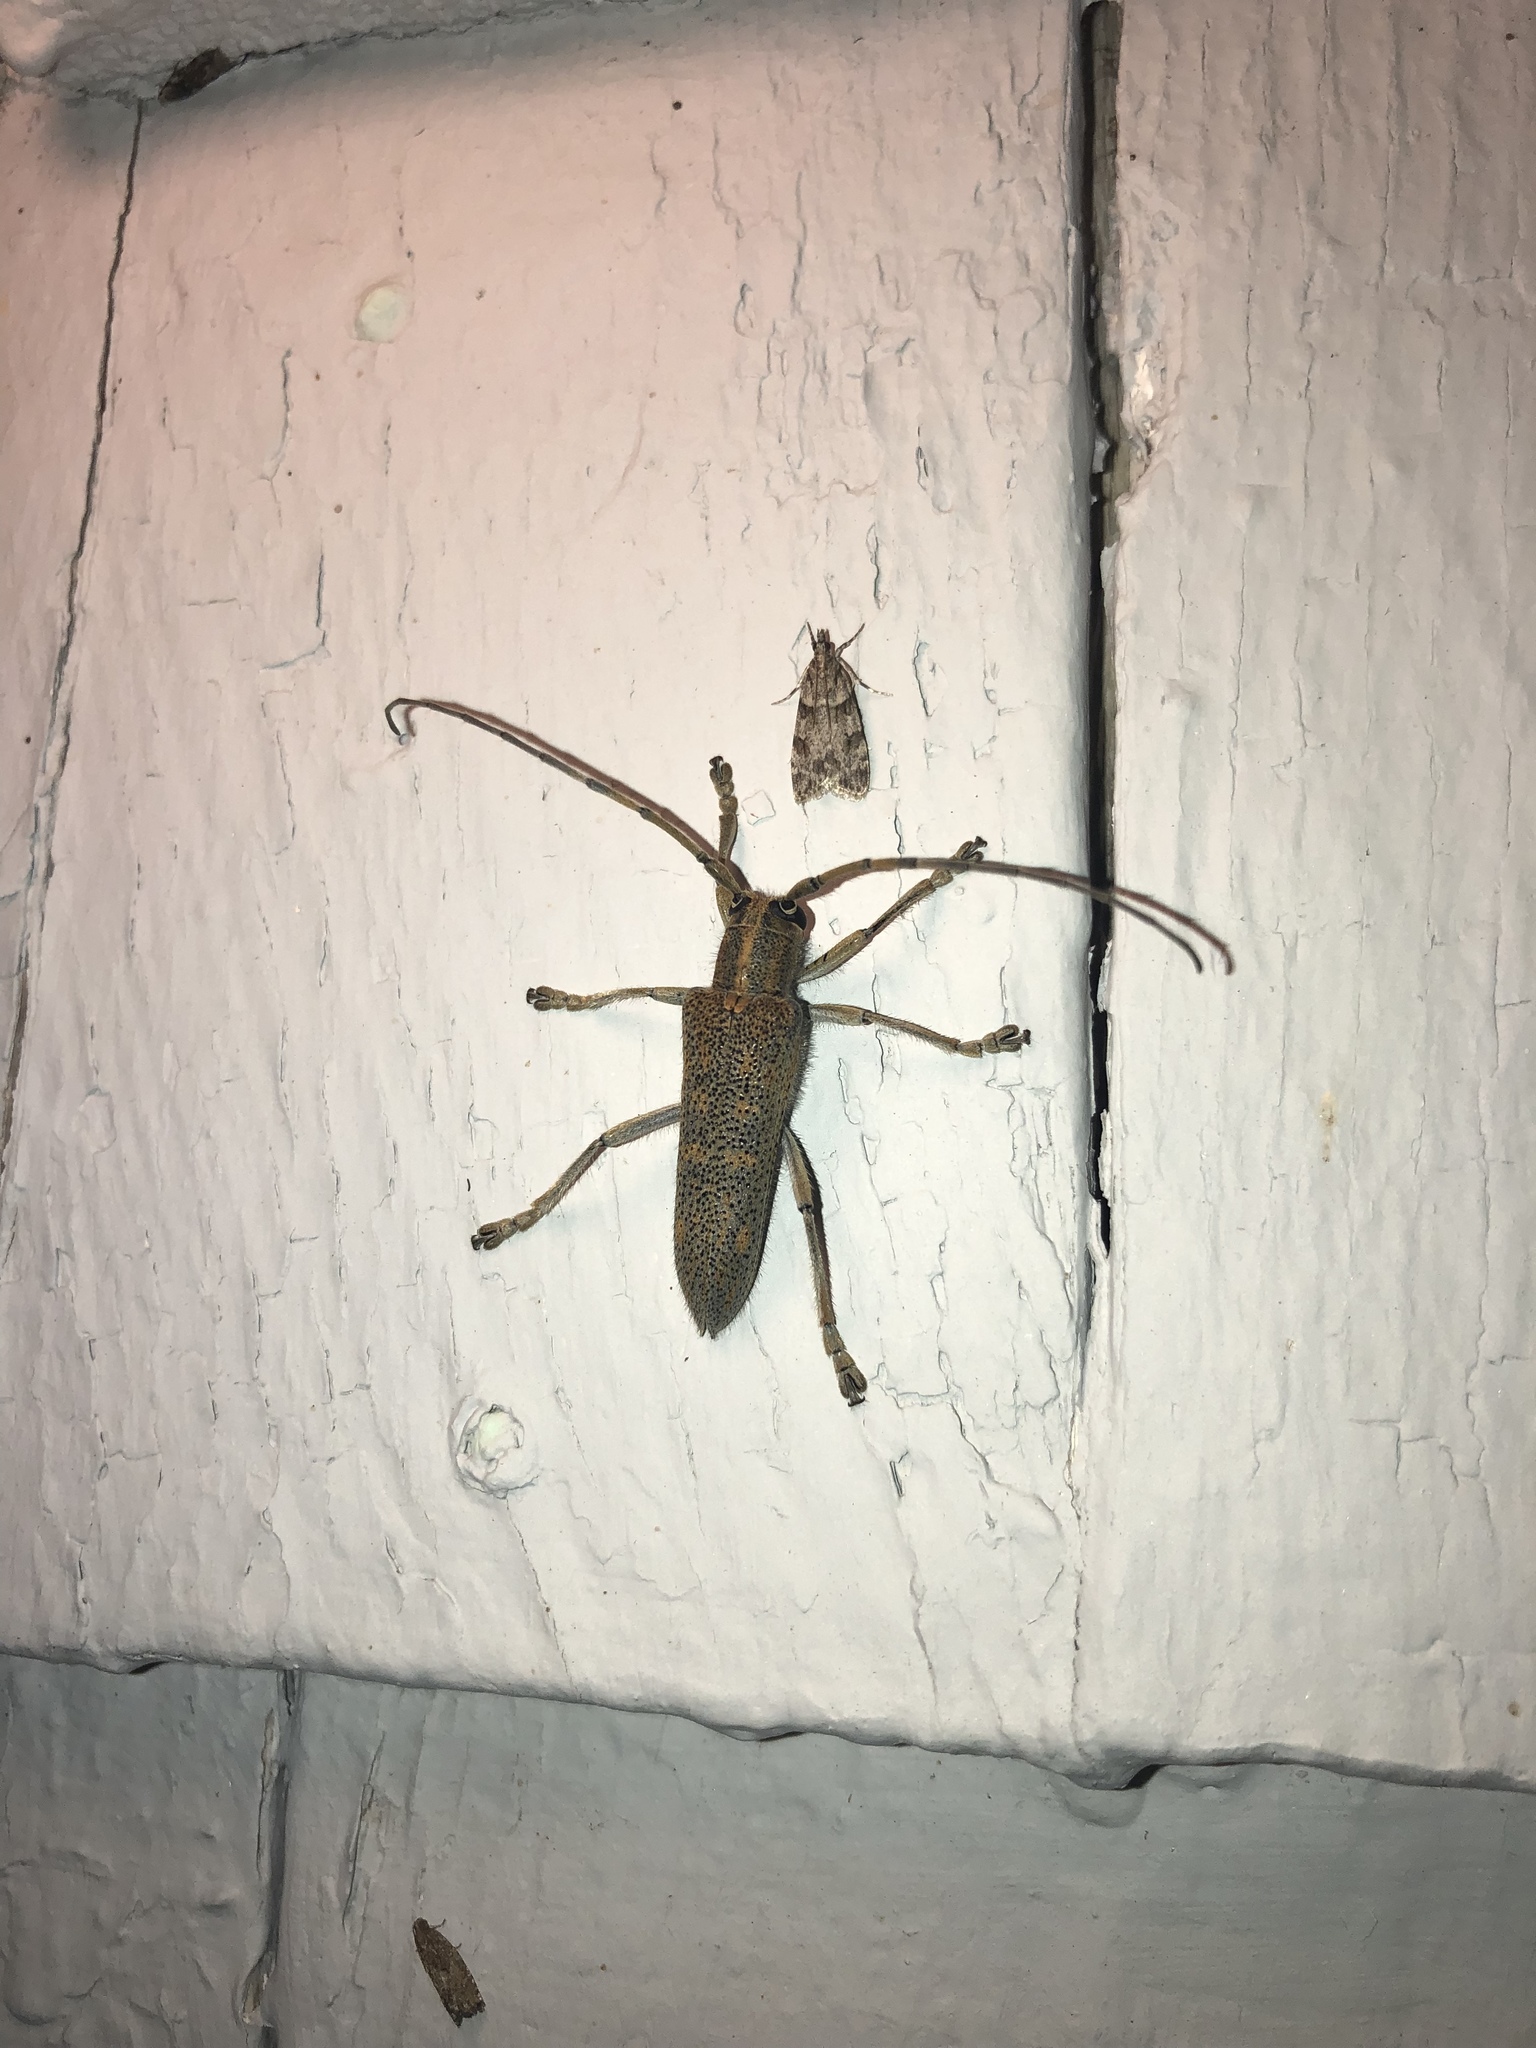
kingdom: Animalia
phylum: Arthropoda
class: Insecta
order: Coleoptera
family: Cerambycidae
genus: Saperda
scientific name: Saperda calcarata
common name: Poplar borer
